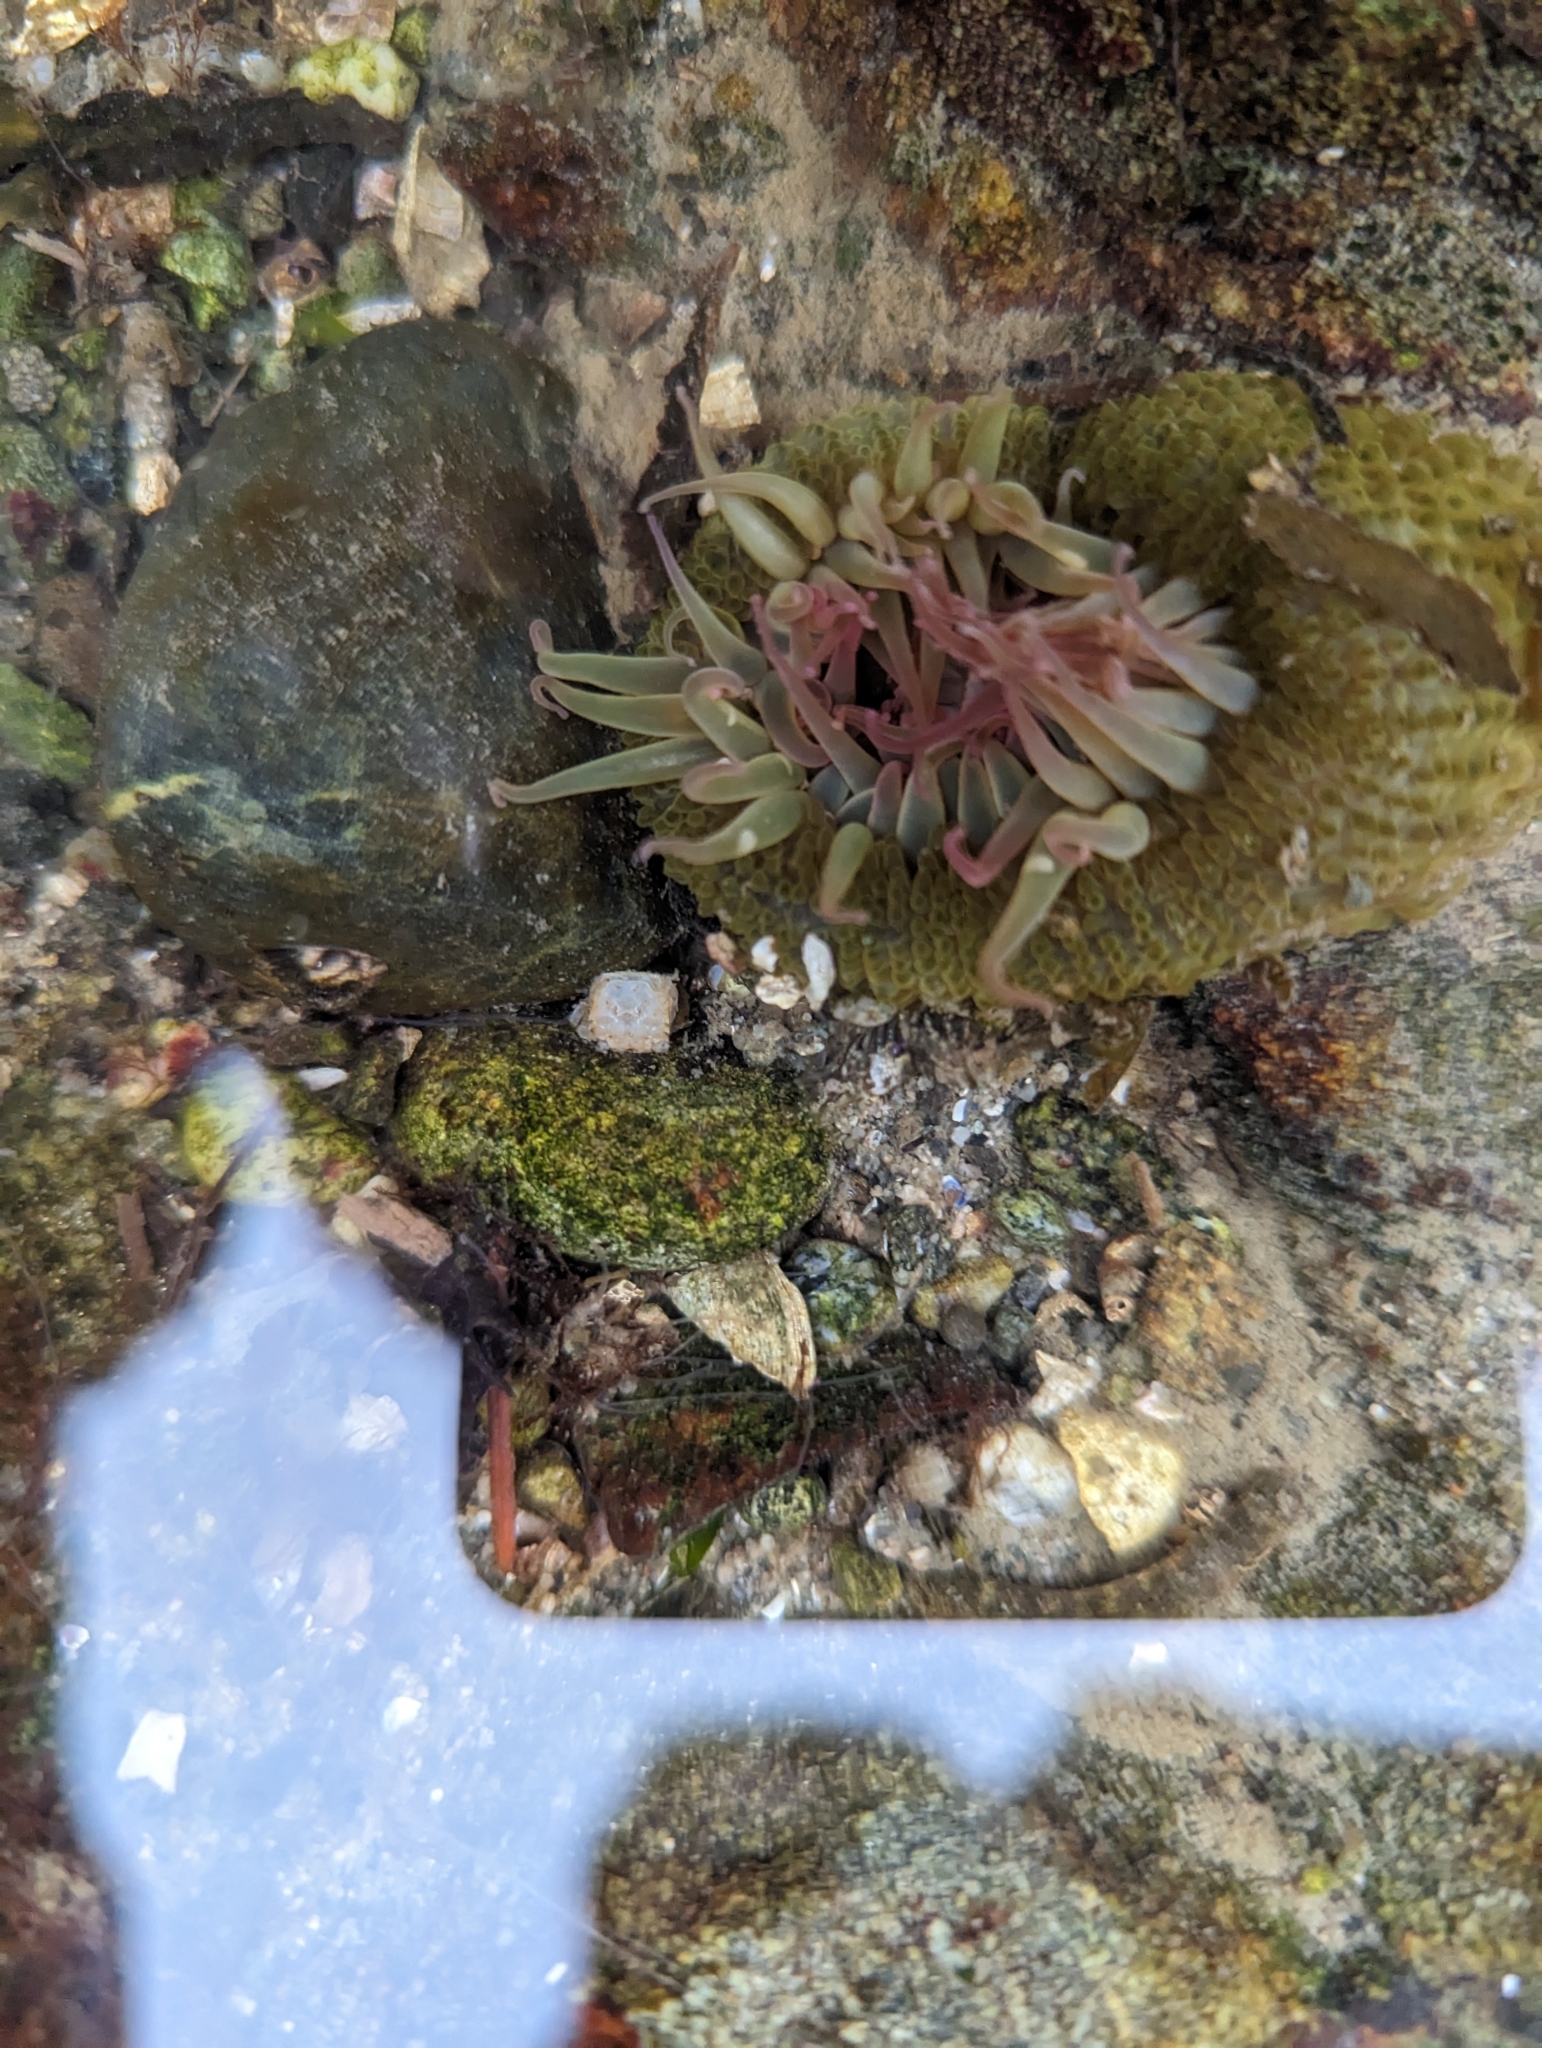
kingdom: Animalia
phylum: Cnidaria
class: Anthozoa
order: Actiniaria
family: Actiniidae
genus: Anthopleura
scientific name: Anthopleura elegantissima
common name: Clonal anemone
